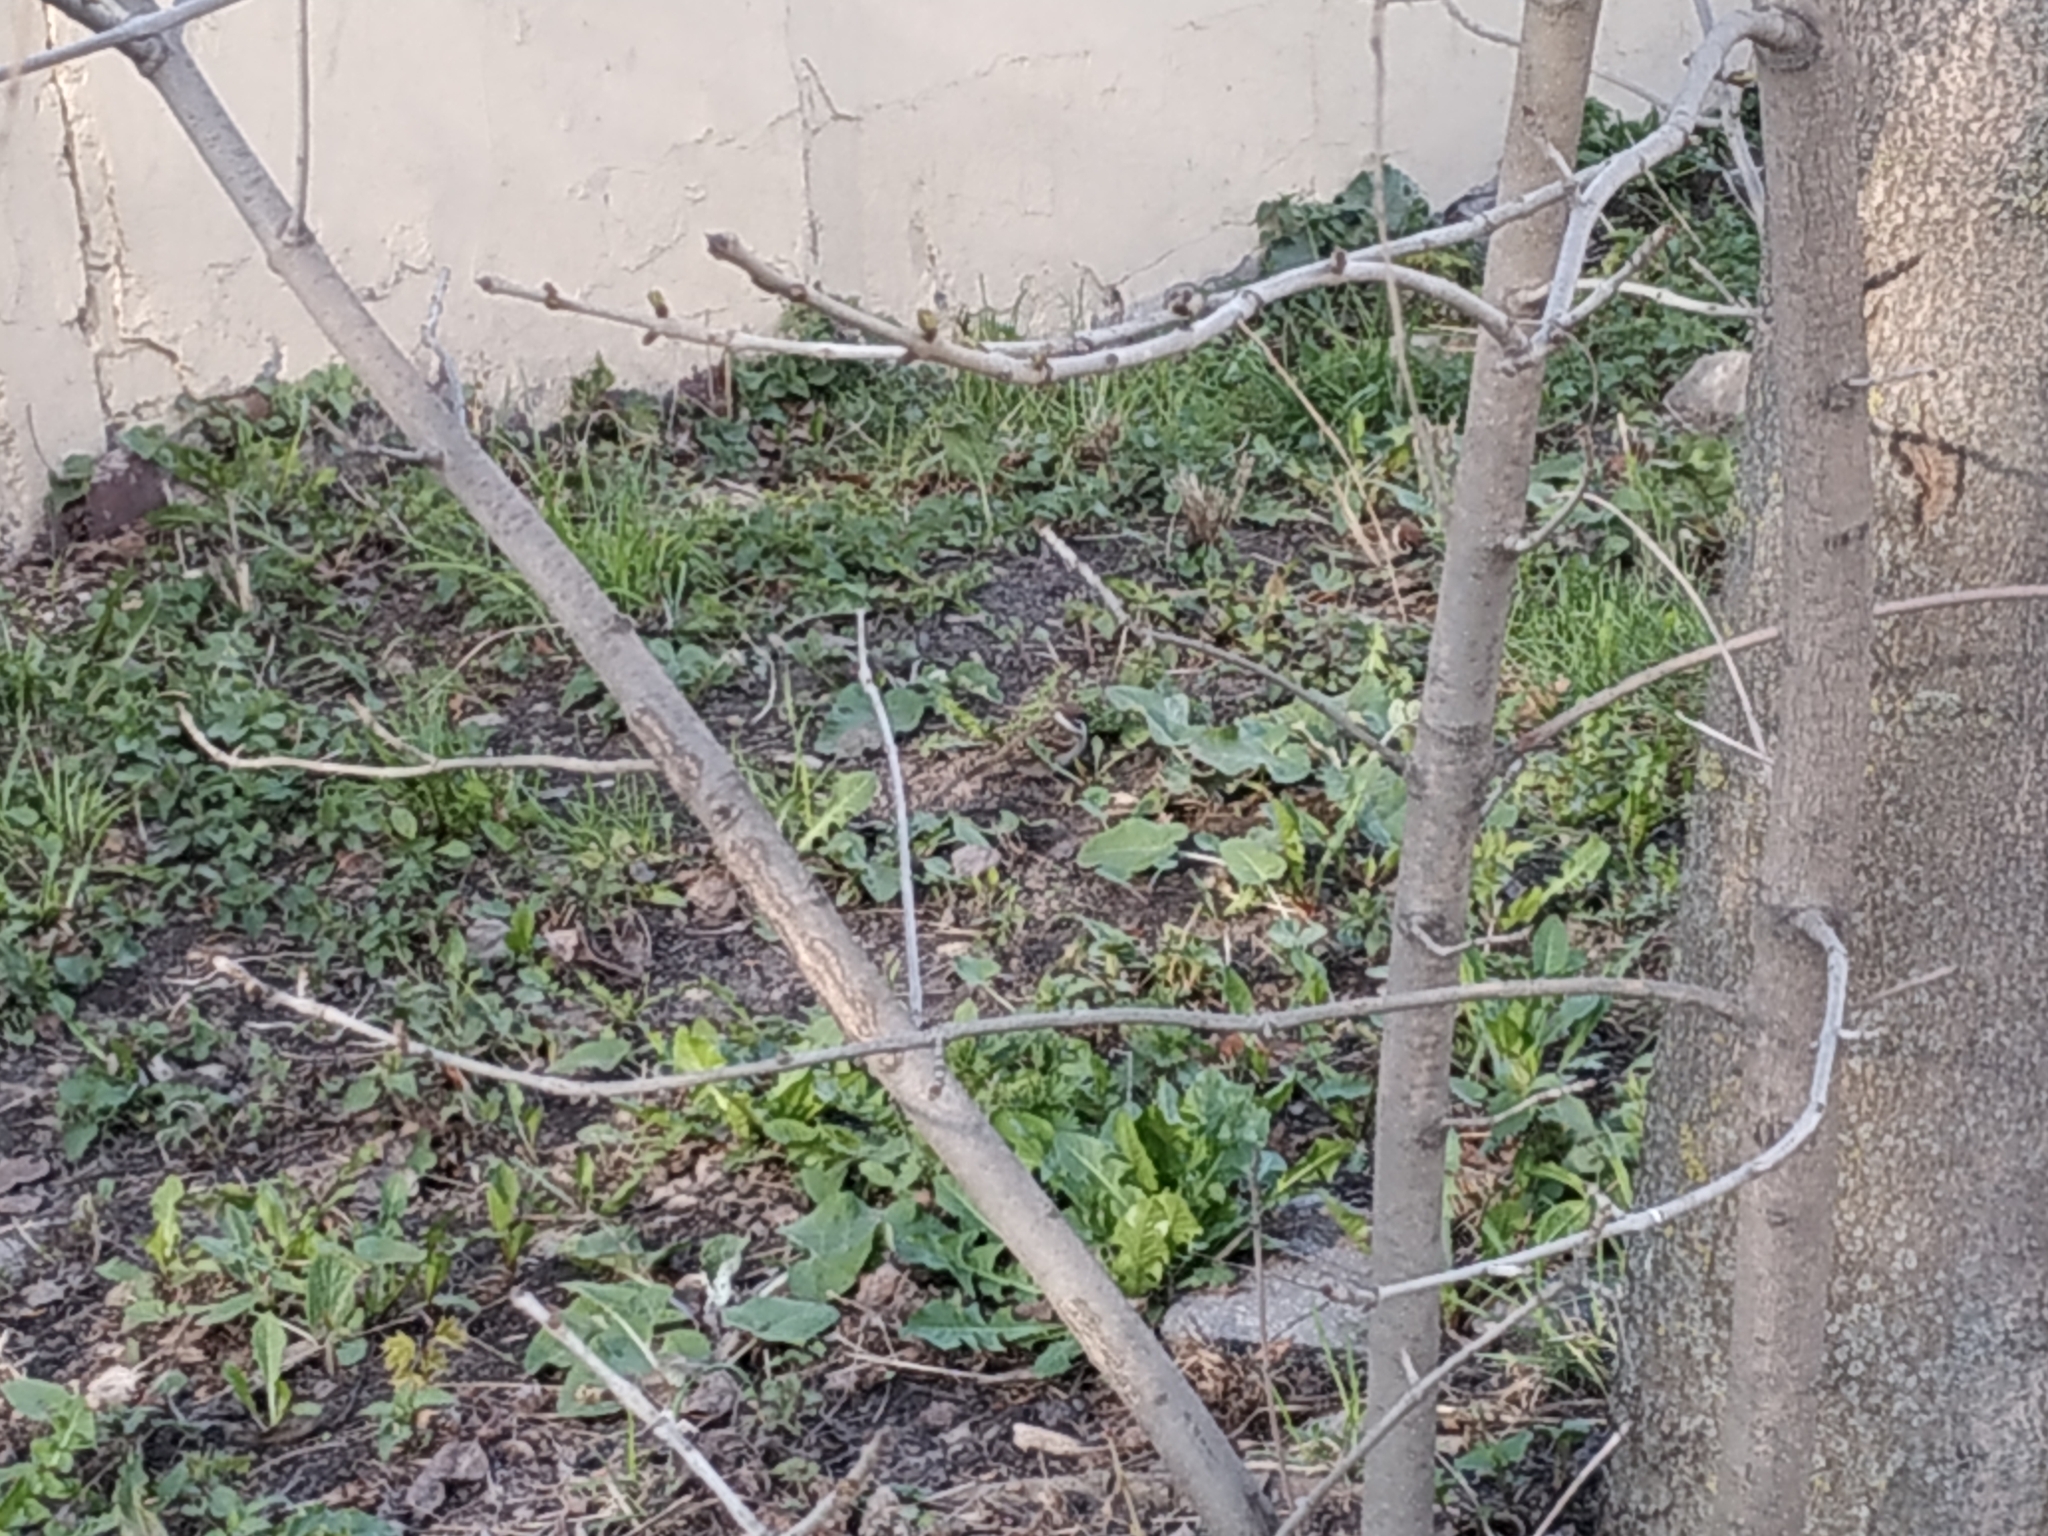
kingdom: Animalia
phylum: Chordata
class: Aves
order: Passeriformes
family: Passeridae
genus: Passer
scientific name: Passer montanus
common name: Eurasian tree sparrow
